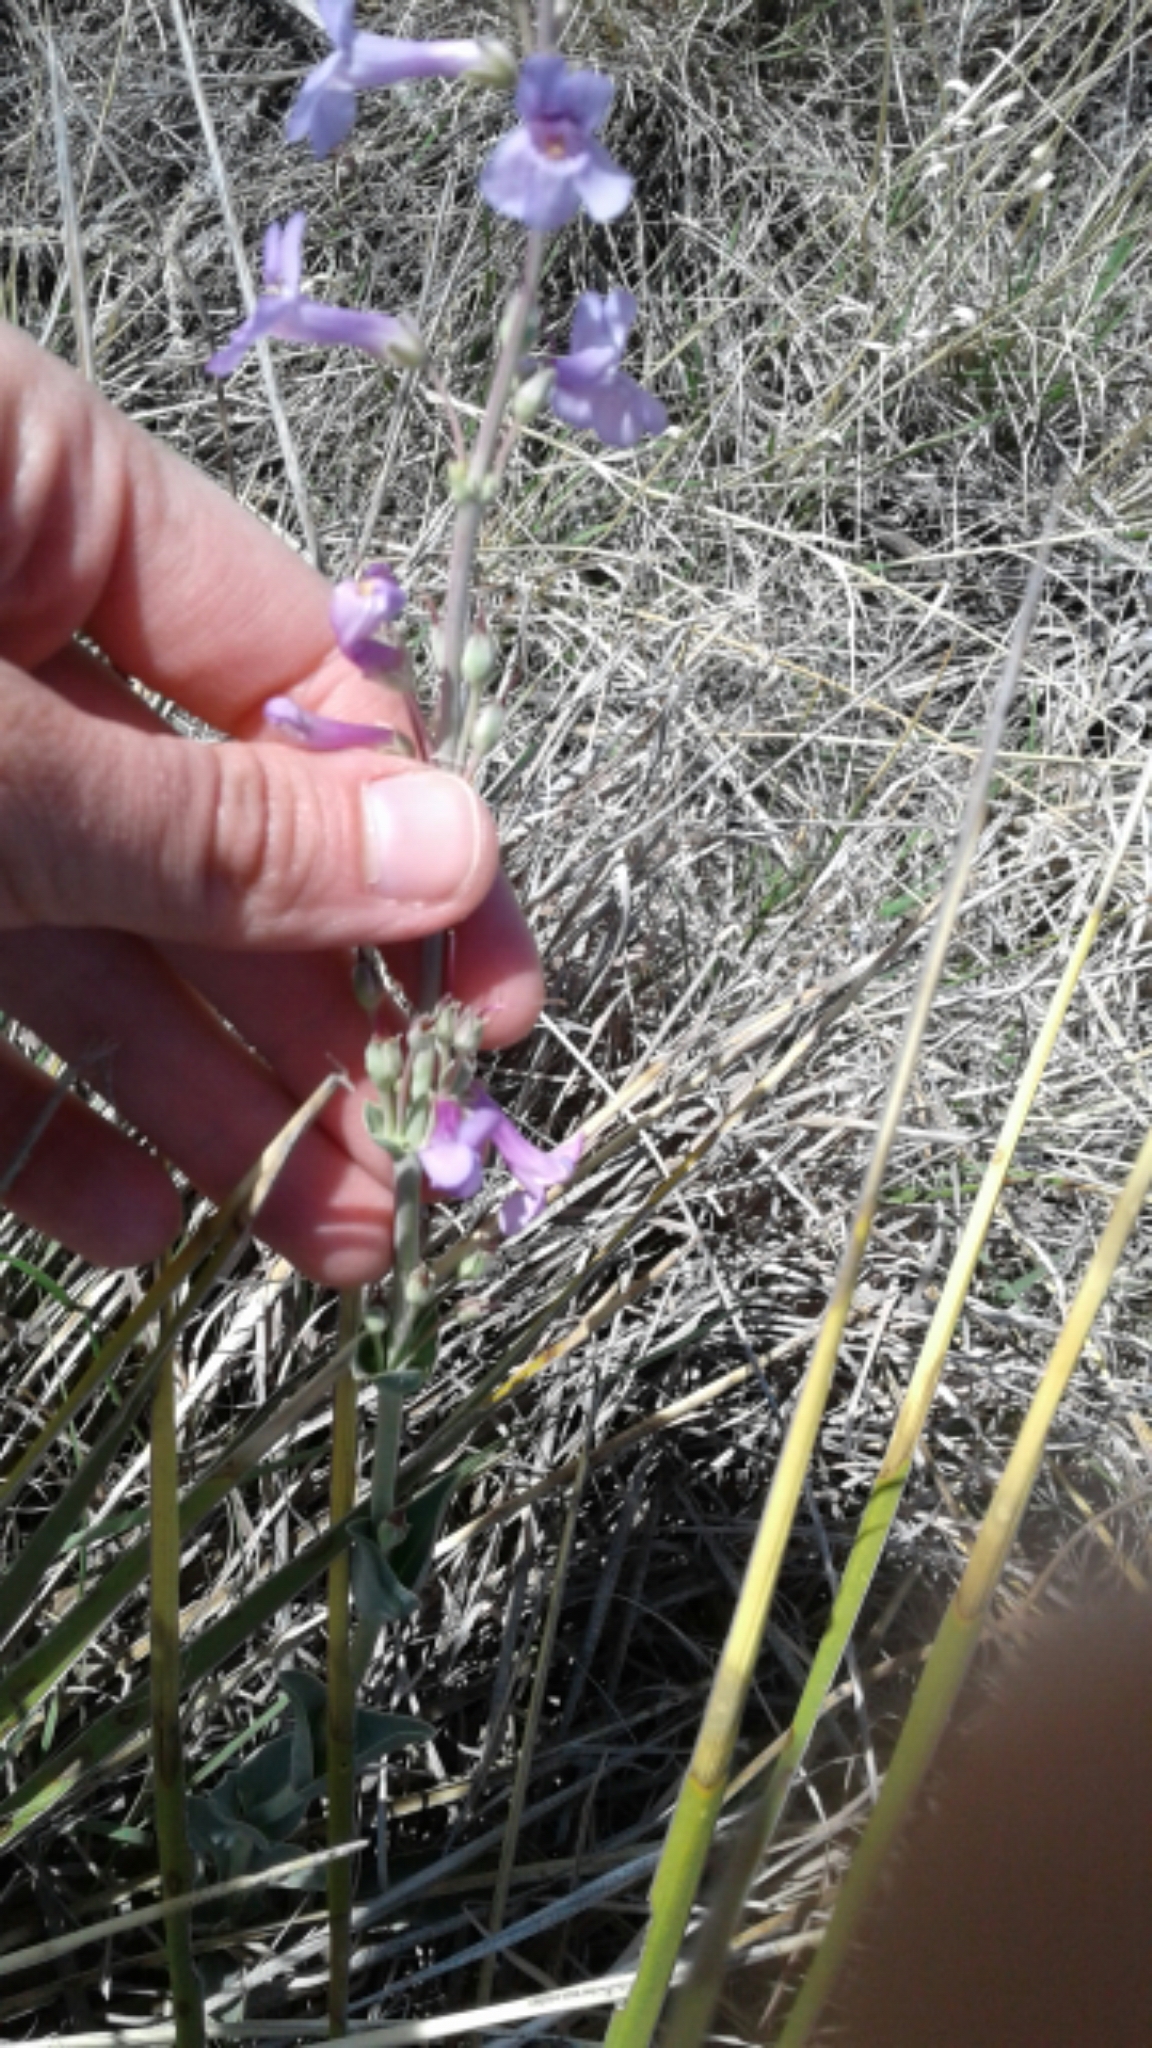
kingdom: Plantae
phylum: Tracheophyta
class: Magnoliopsida
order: Lamiales
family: Plantaginaceae
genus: Penstemon
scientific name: Penstemon fendleri
